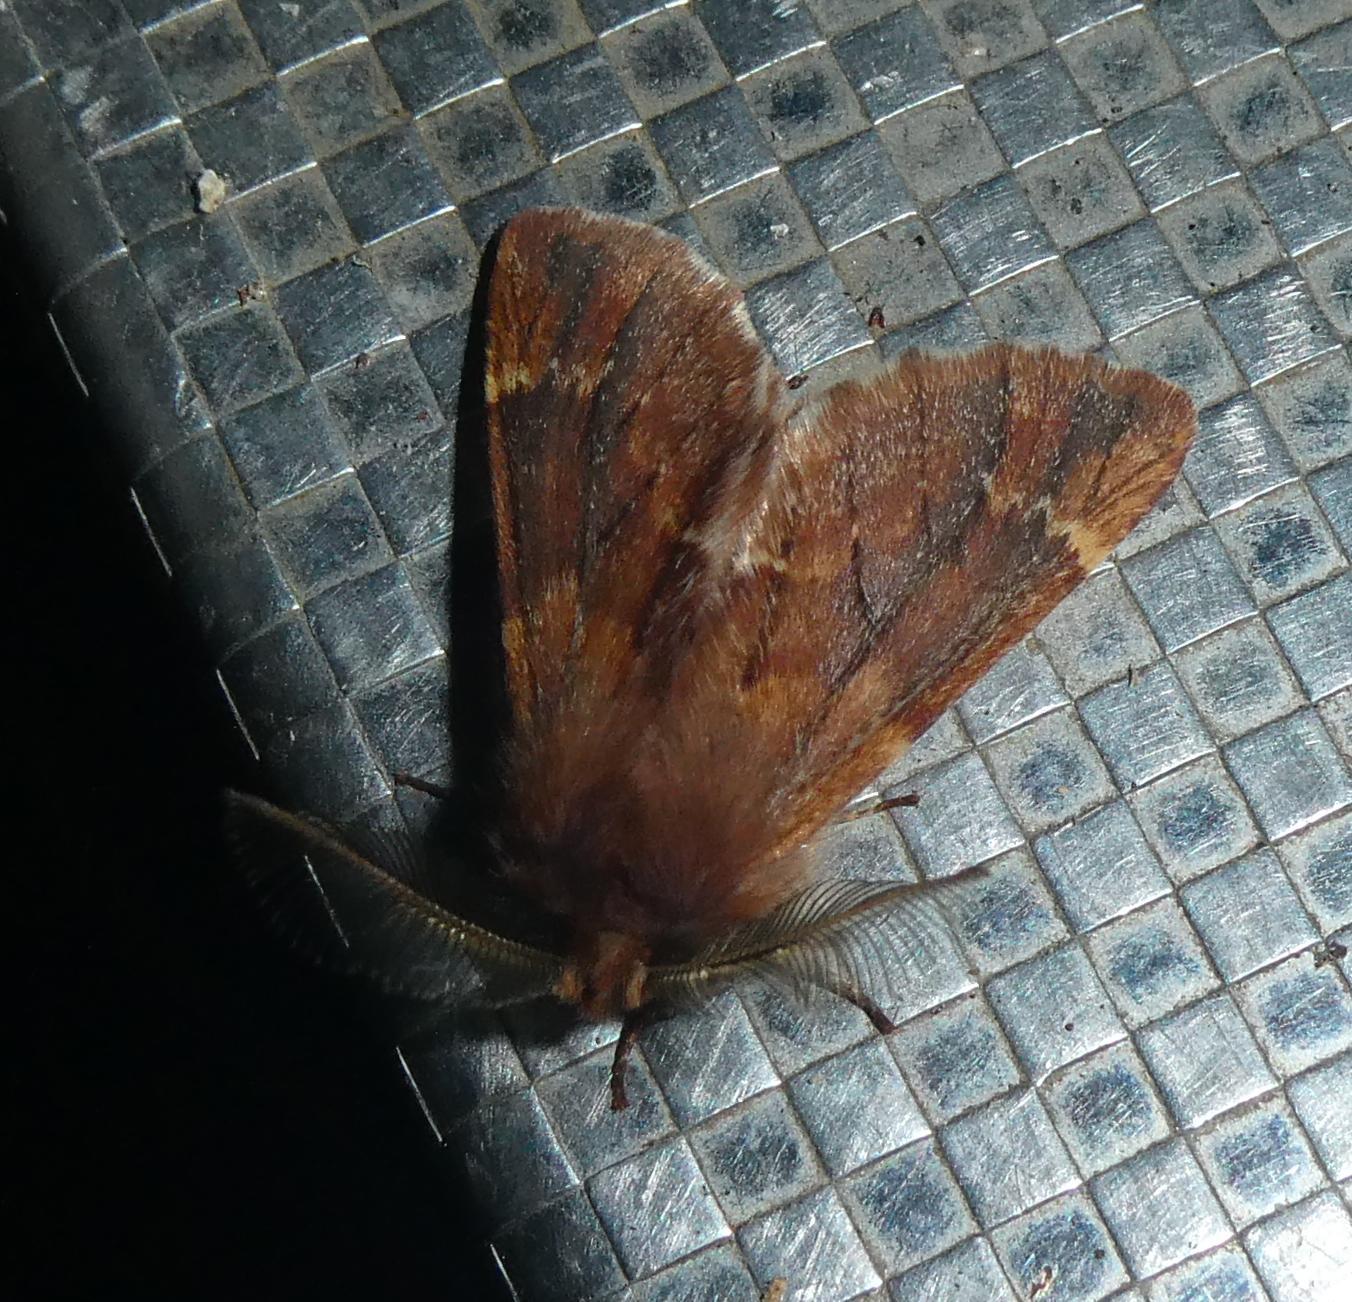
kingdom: Animalia
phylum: Arthropoda
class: Insecta
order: Lepidoptera
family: Notodontidae
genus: Ptilophora
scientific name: Ptilophora plumigera
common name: Plumed prominent
